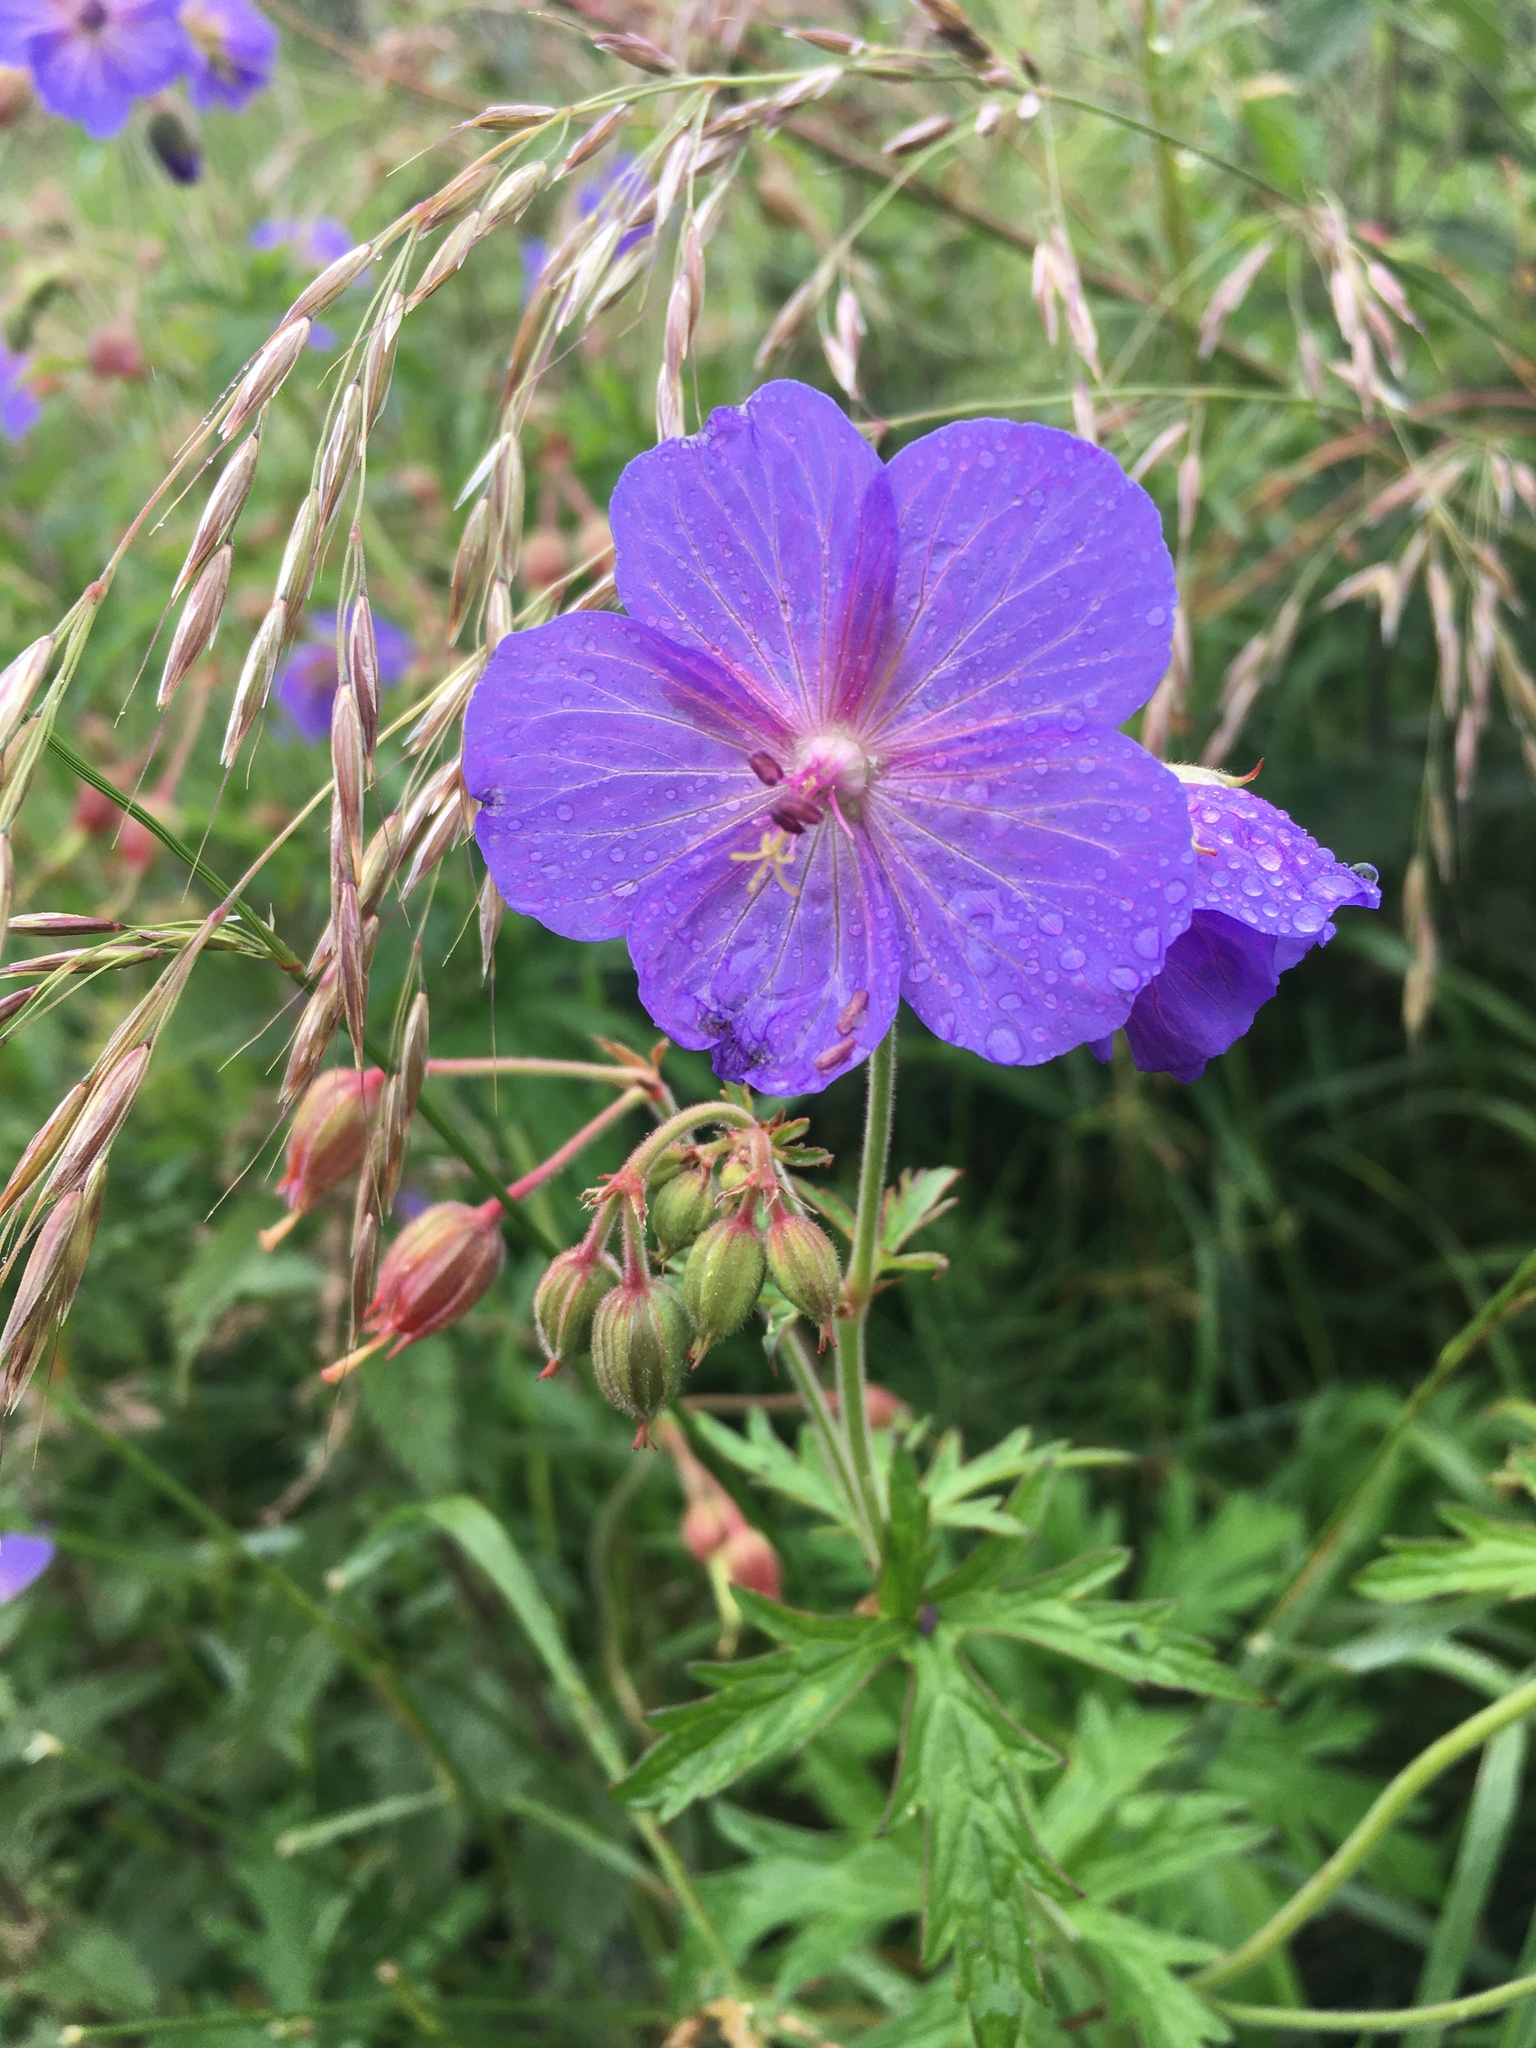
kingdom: Plantae
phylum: Tracheophyta
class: Magnoliopsida
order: Geraniales
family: Geraniaceae
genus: Geranium
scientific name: Geranium pratense
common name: Meadow crane's-bill
